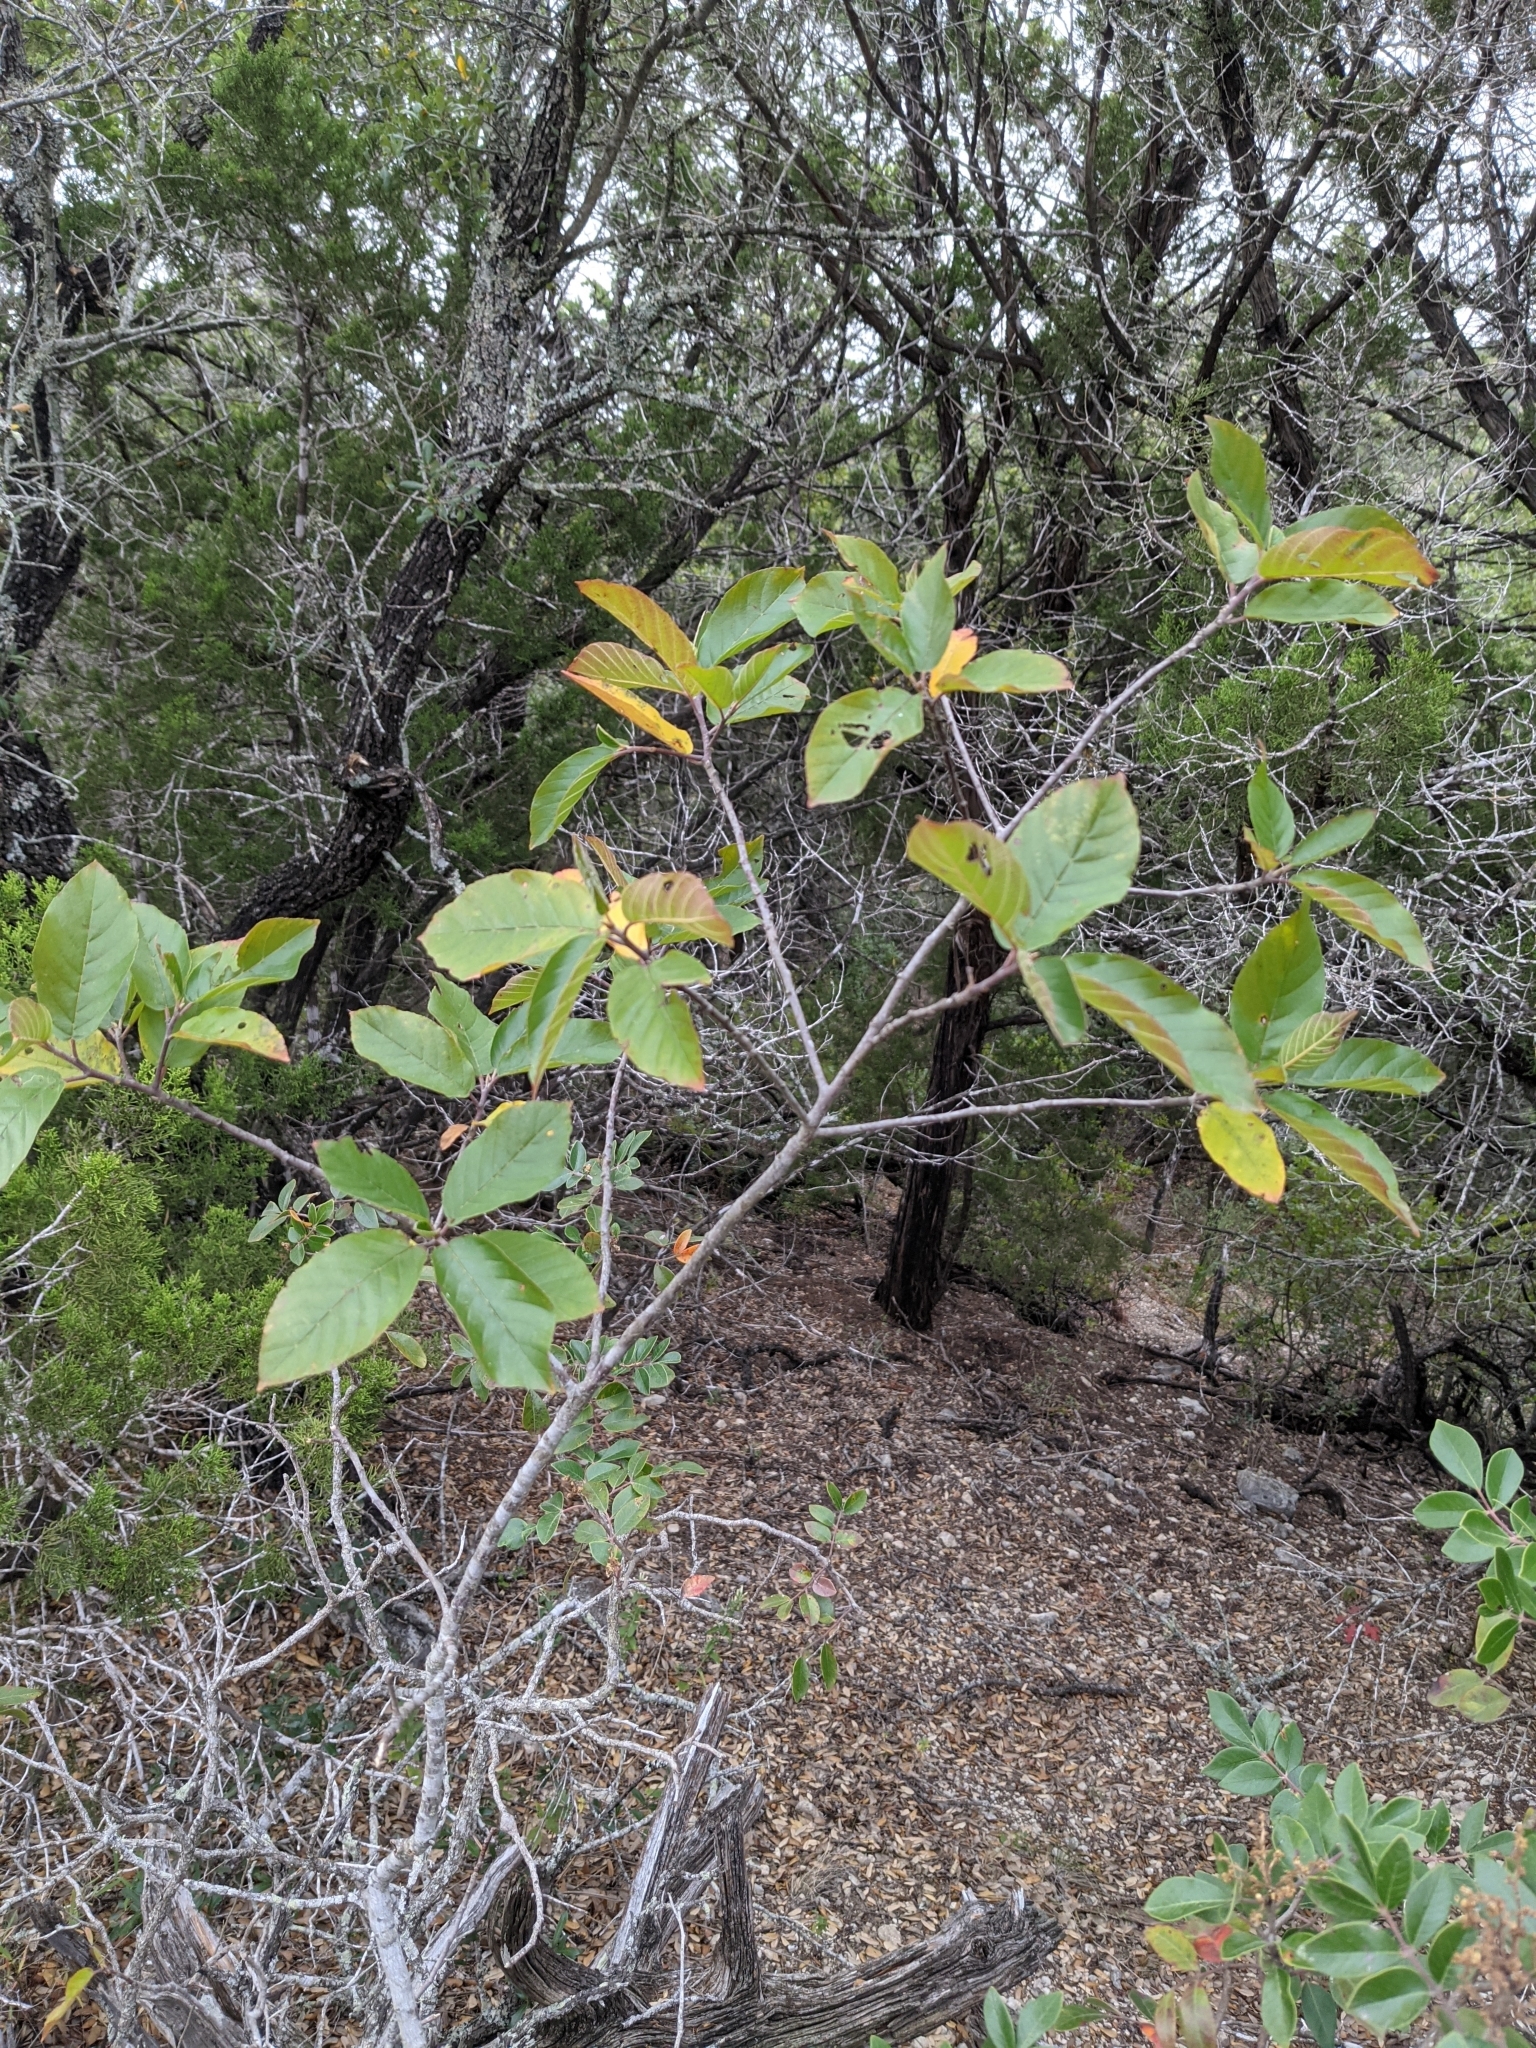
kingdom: Plantae
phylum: Tracheophyta
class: Magnoliopsida
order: Rosales
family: Rhamnaceae
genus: Frangula
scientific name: Frangula caroliniana
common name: Carolina buckthorn
